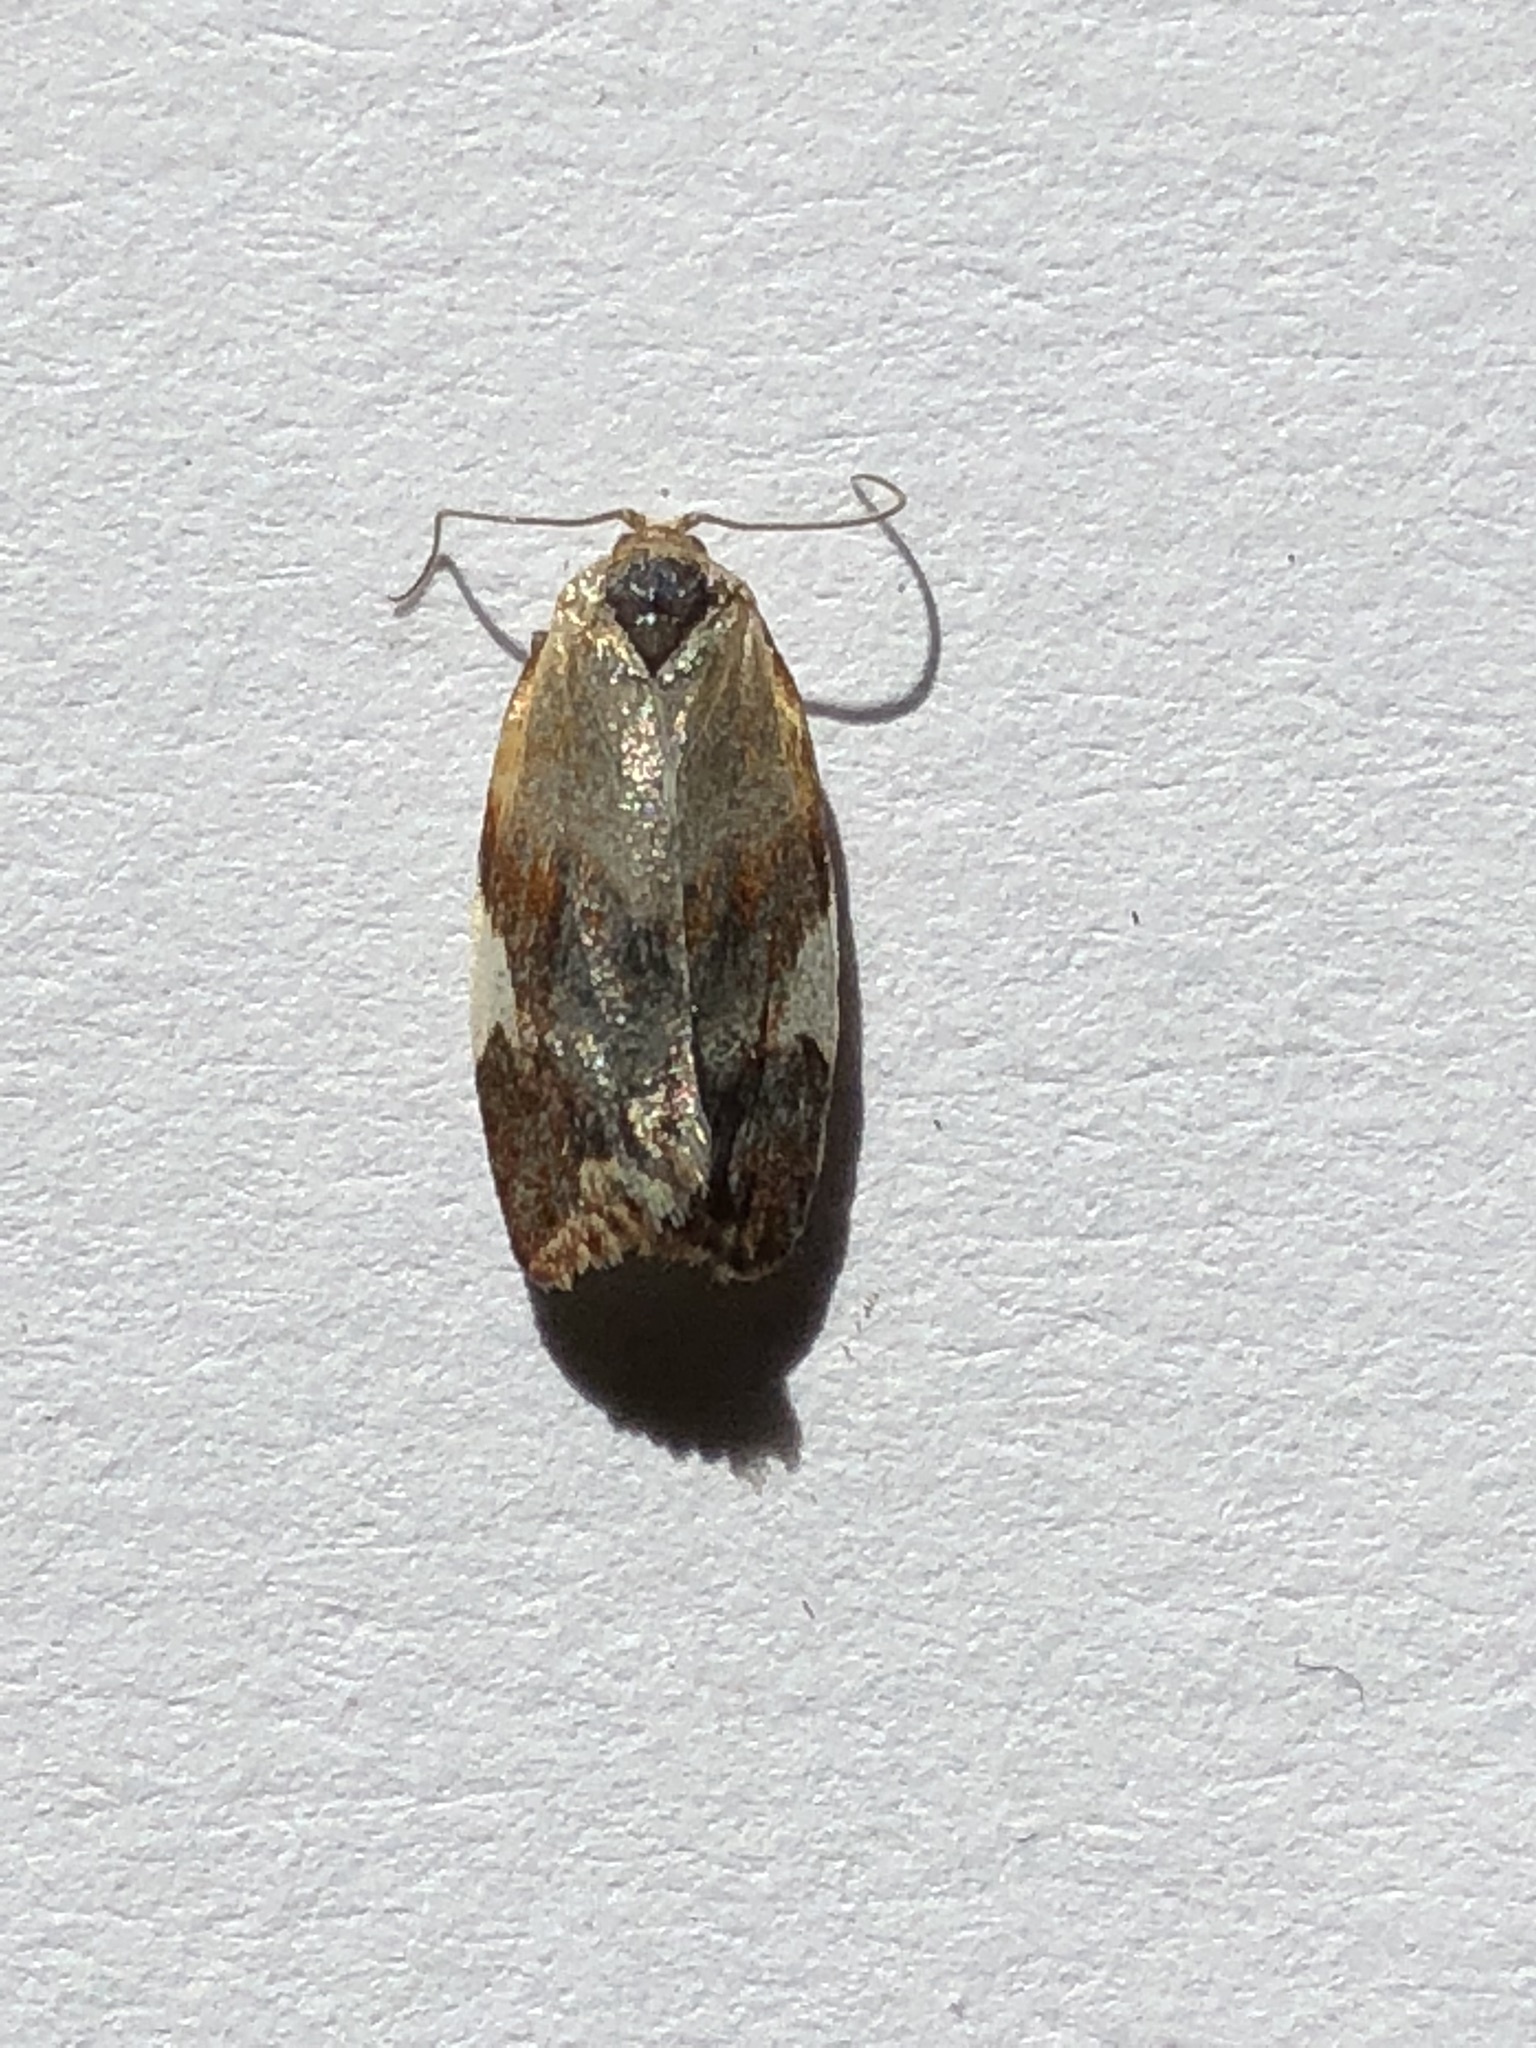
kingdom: Animalia
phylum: Arthropoda
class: Insecta
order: Lepidoptera
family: Tortricidae
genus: Clepsis
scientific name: Clepsis persicana
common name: White triangle tortrix
